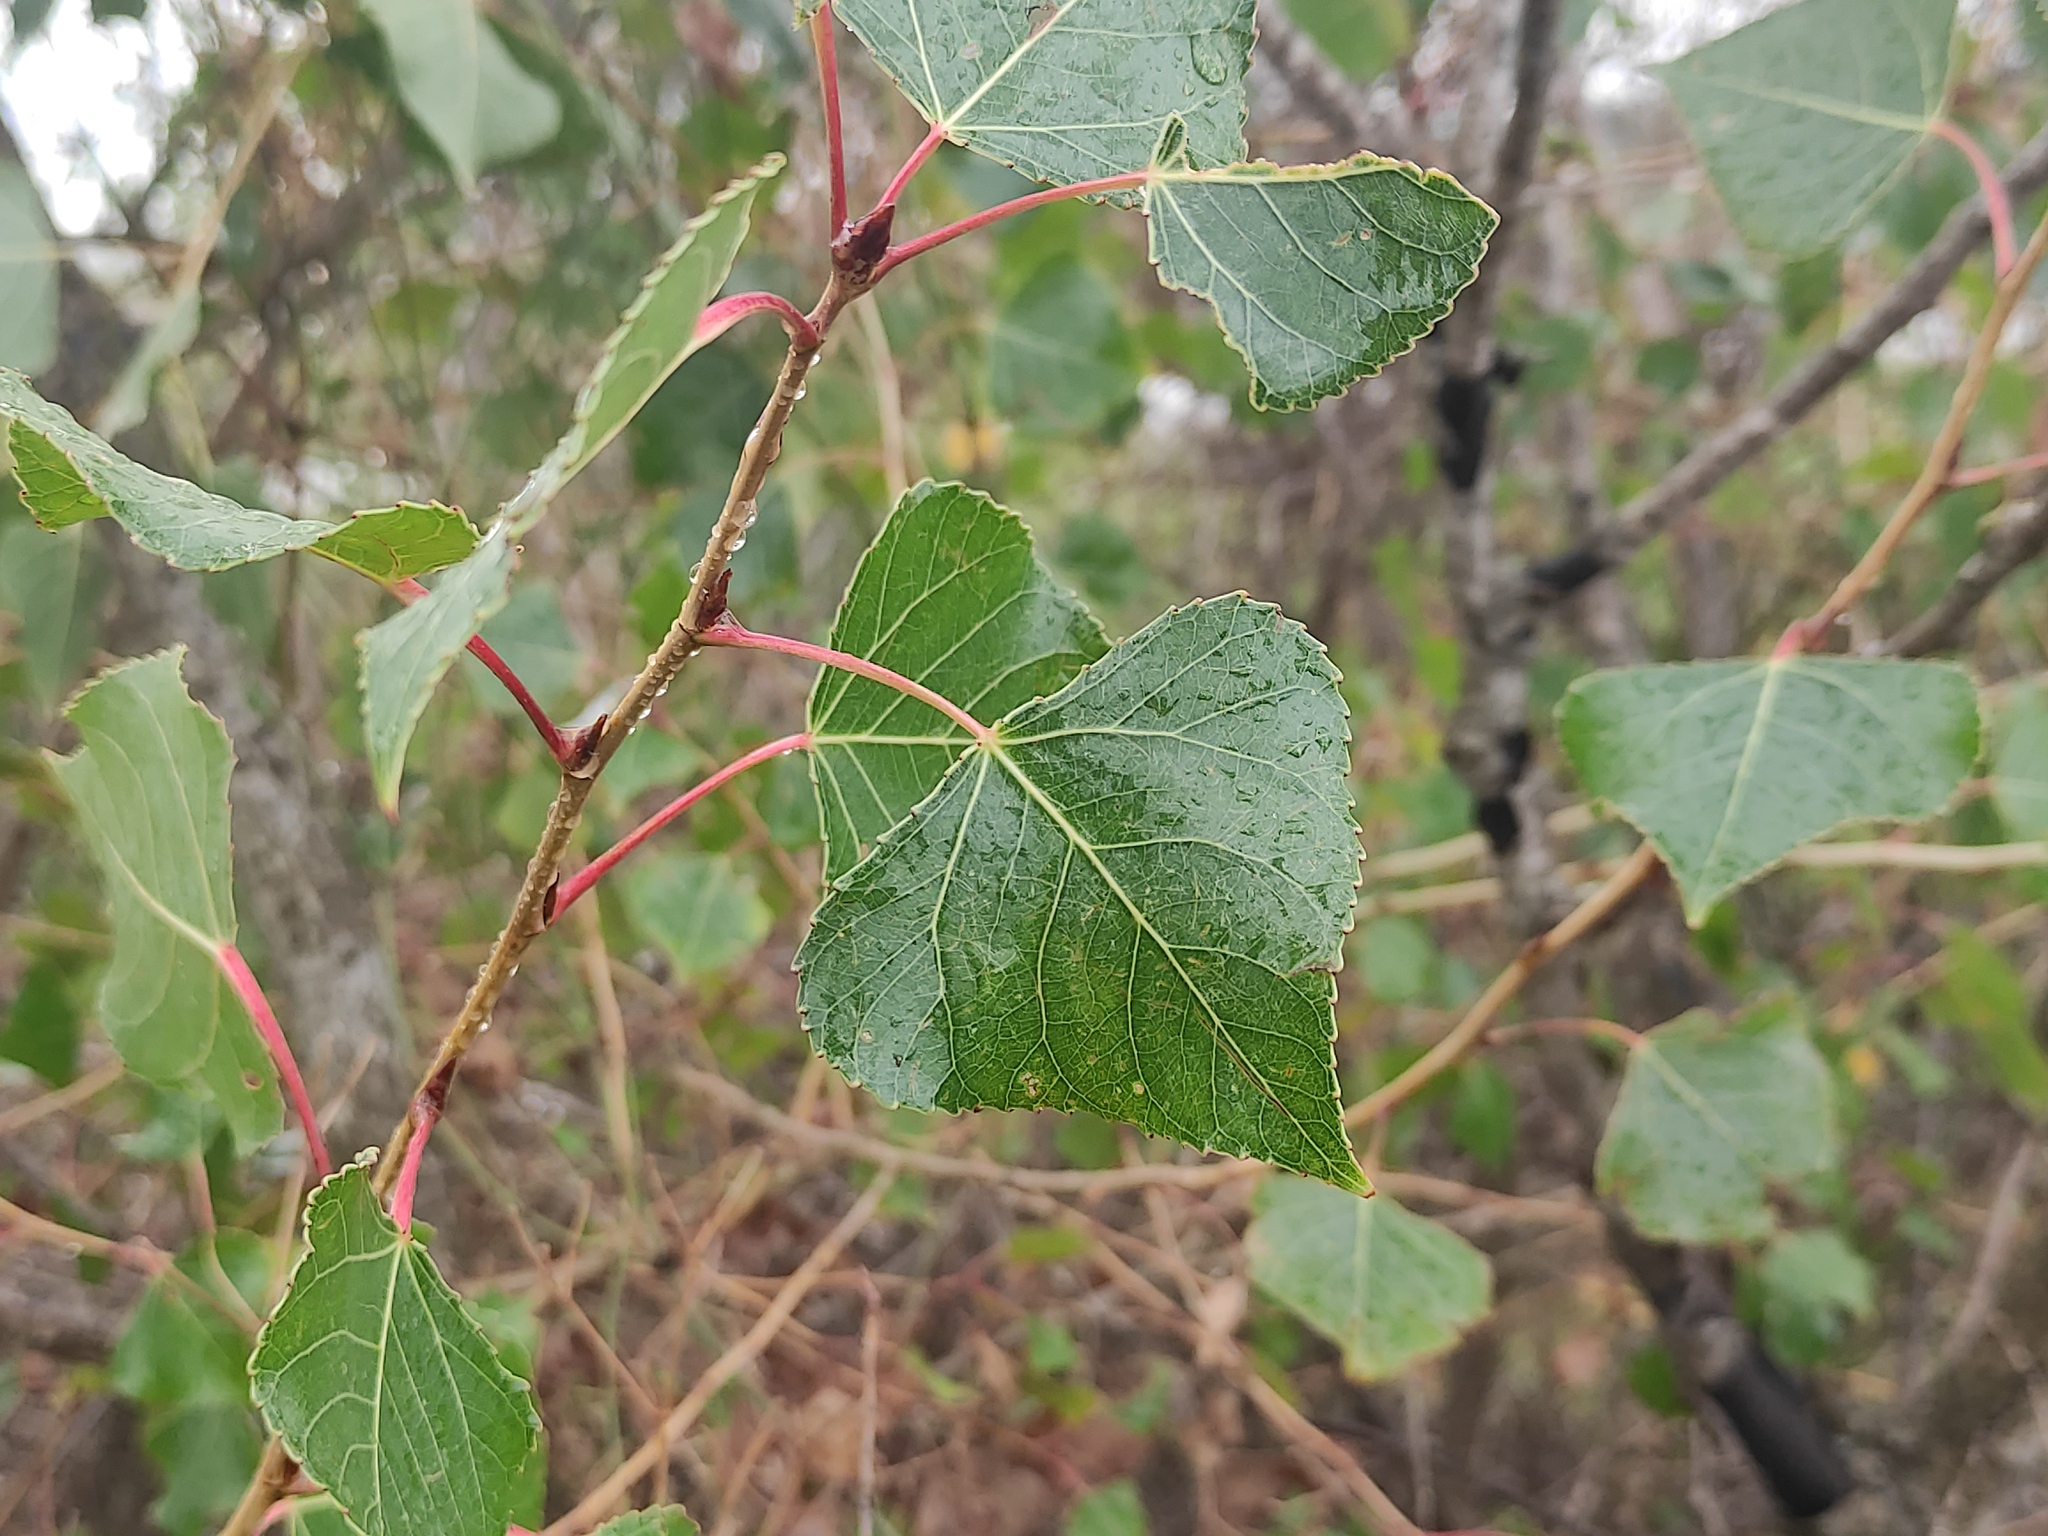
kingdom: Plantae
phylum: Tracheophyta
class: Magnoliopsida
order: Malpighiales
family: Salicaceae
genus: Populus
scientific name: Populus nigra
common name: Black poplar
